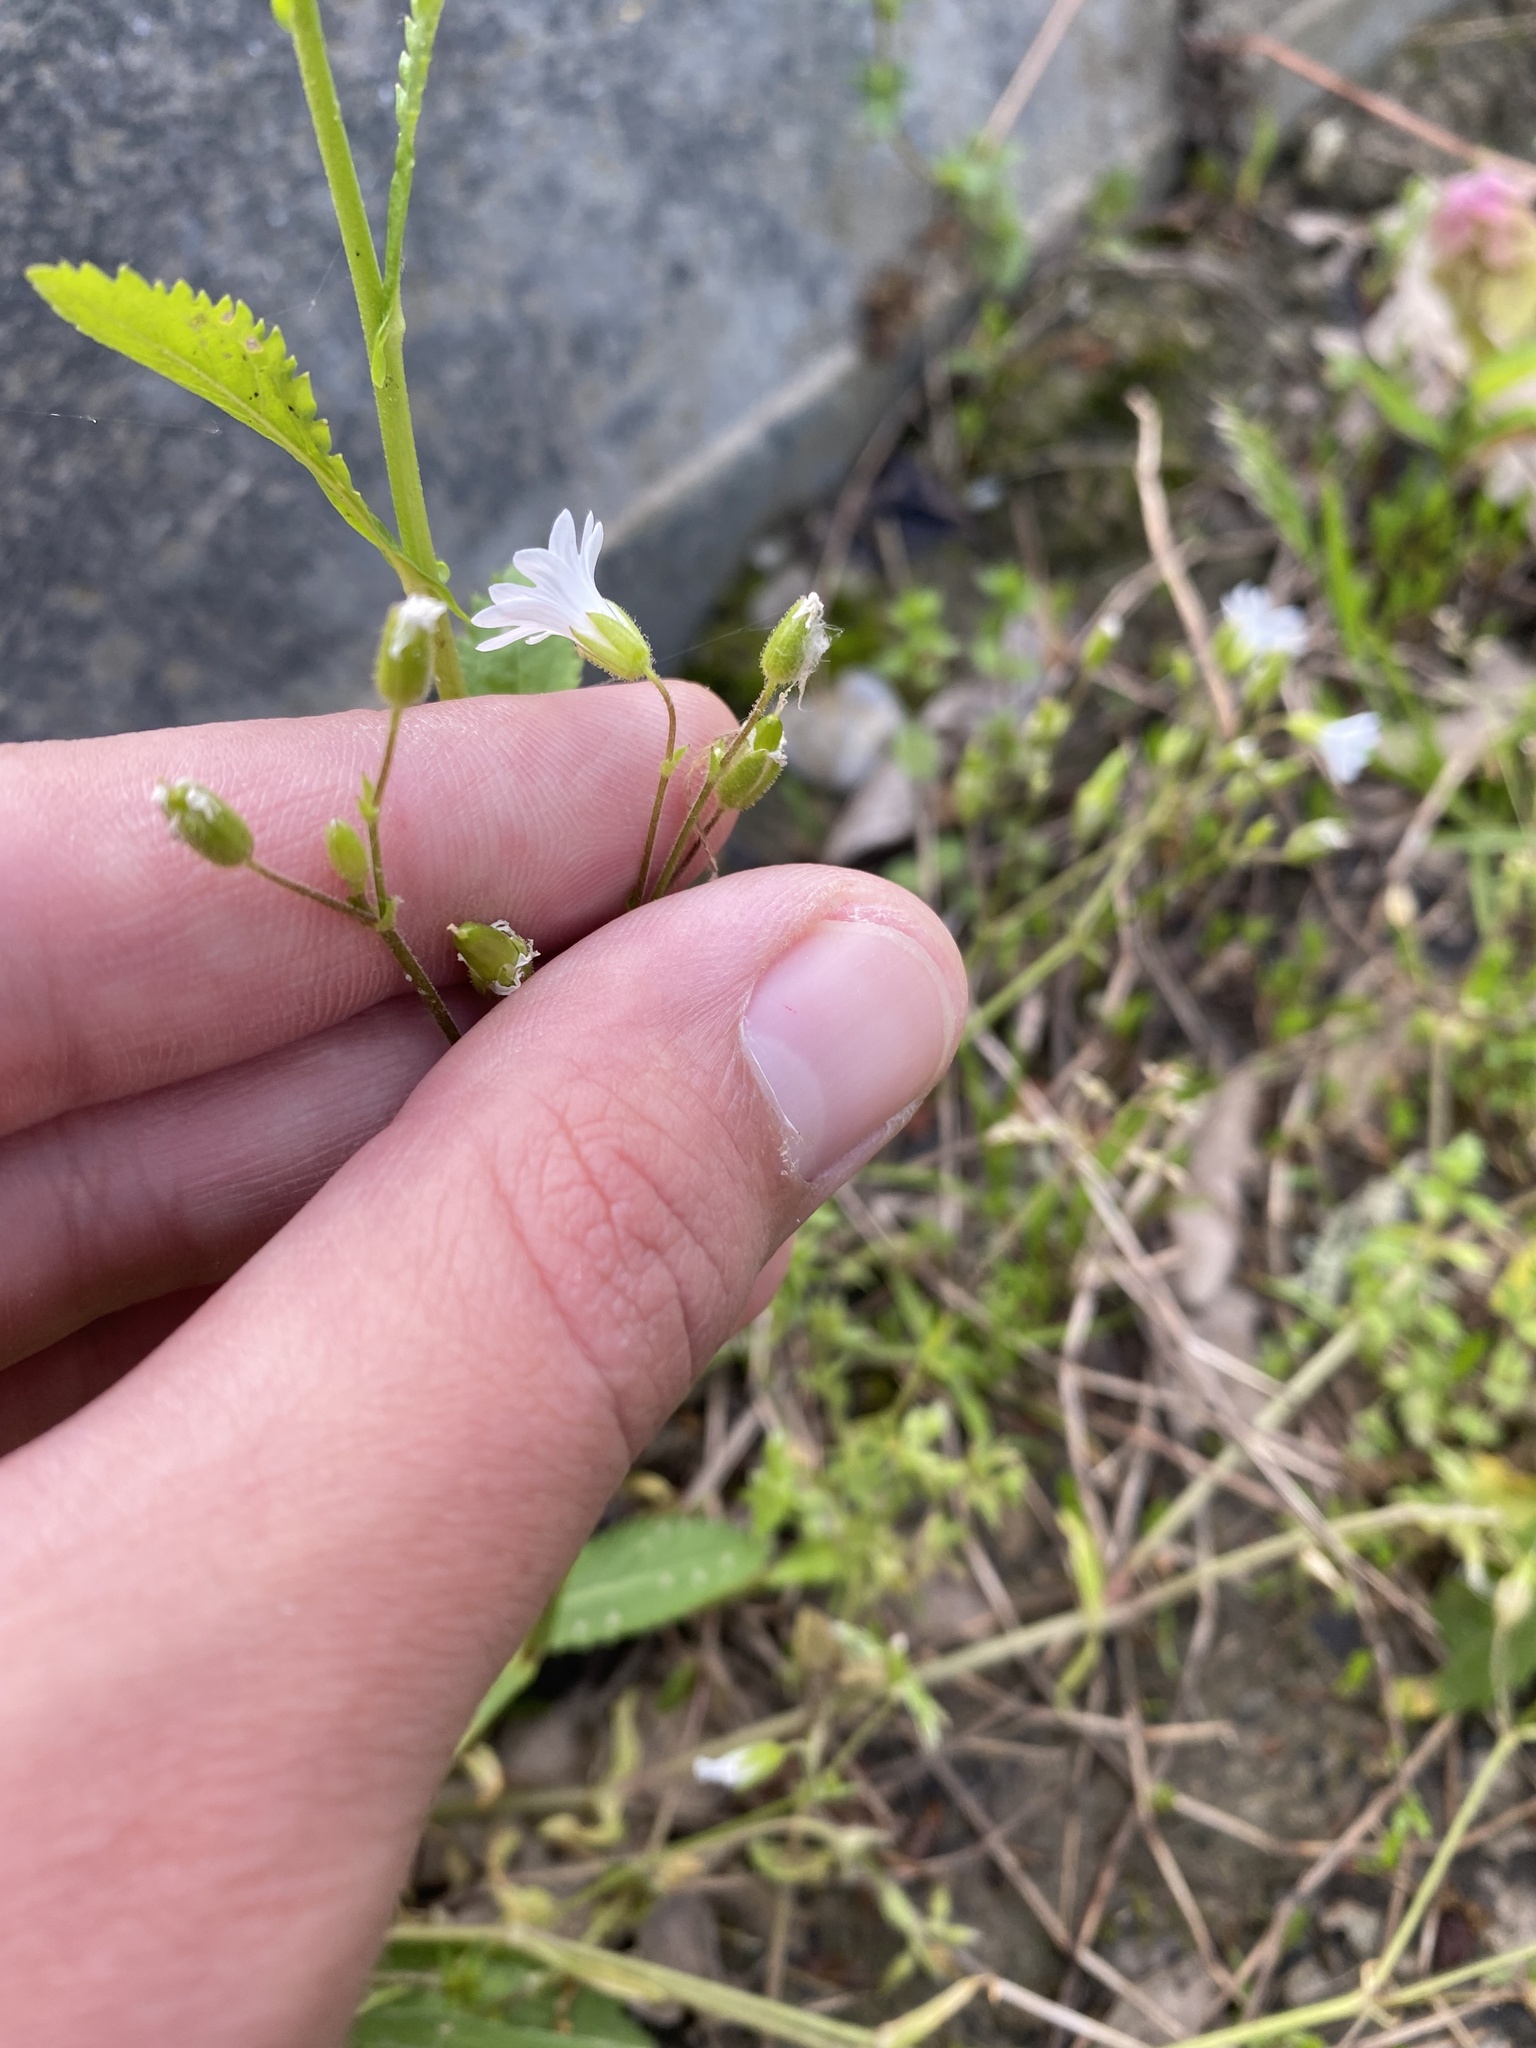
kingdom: Plantae
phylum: Tracheophyta
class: Magnoliopsida
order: Caryophyllales
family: Caryophyllaceae
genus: Dichodon
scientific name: Dichodon viscidum
